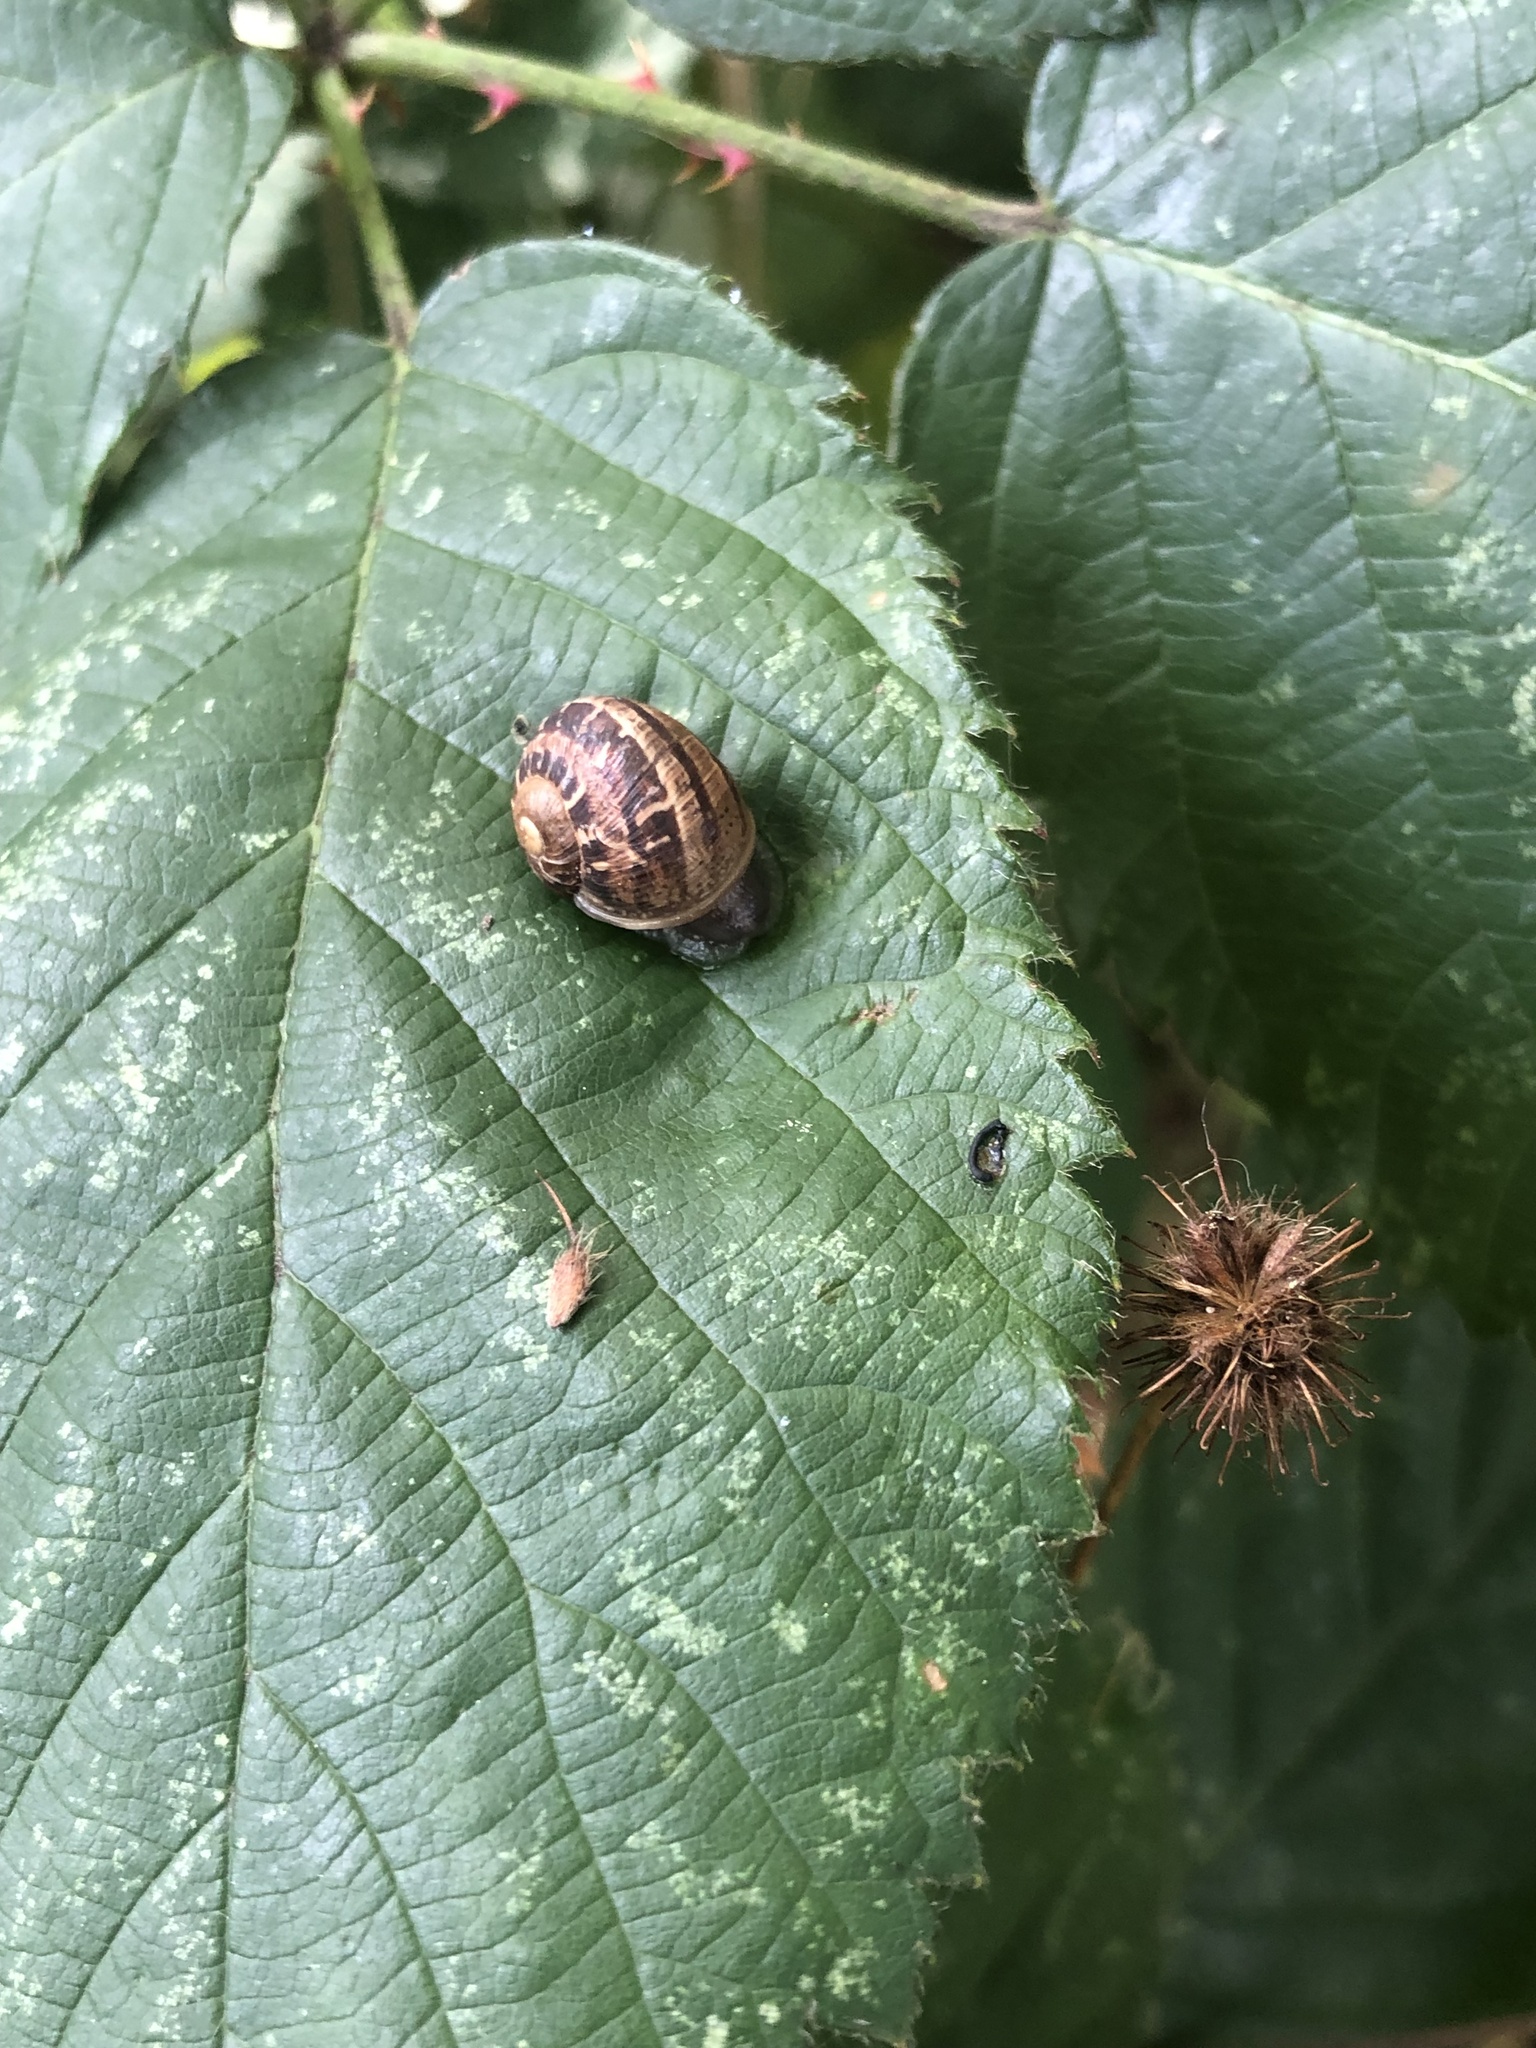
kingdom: Animalia
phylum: Mollusca
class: Gastropoda
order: Stylommatophora
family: Helicidae
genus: Cornu
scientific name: Cornu aspersum
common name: Brown garden snail
